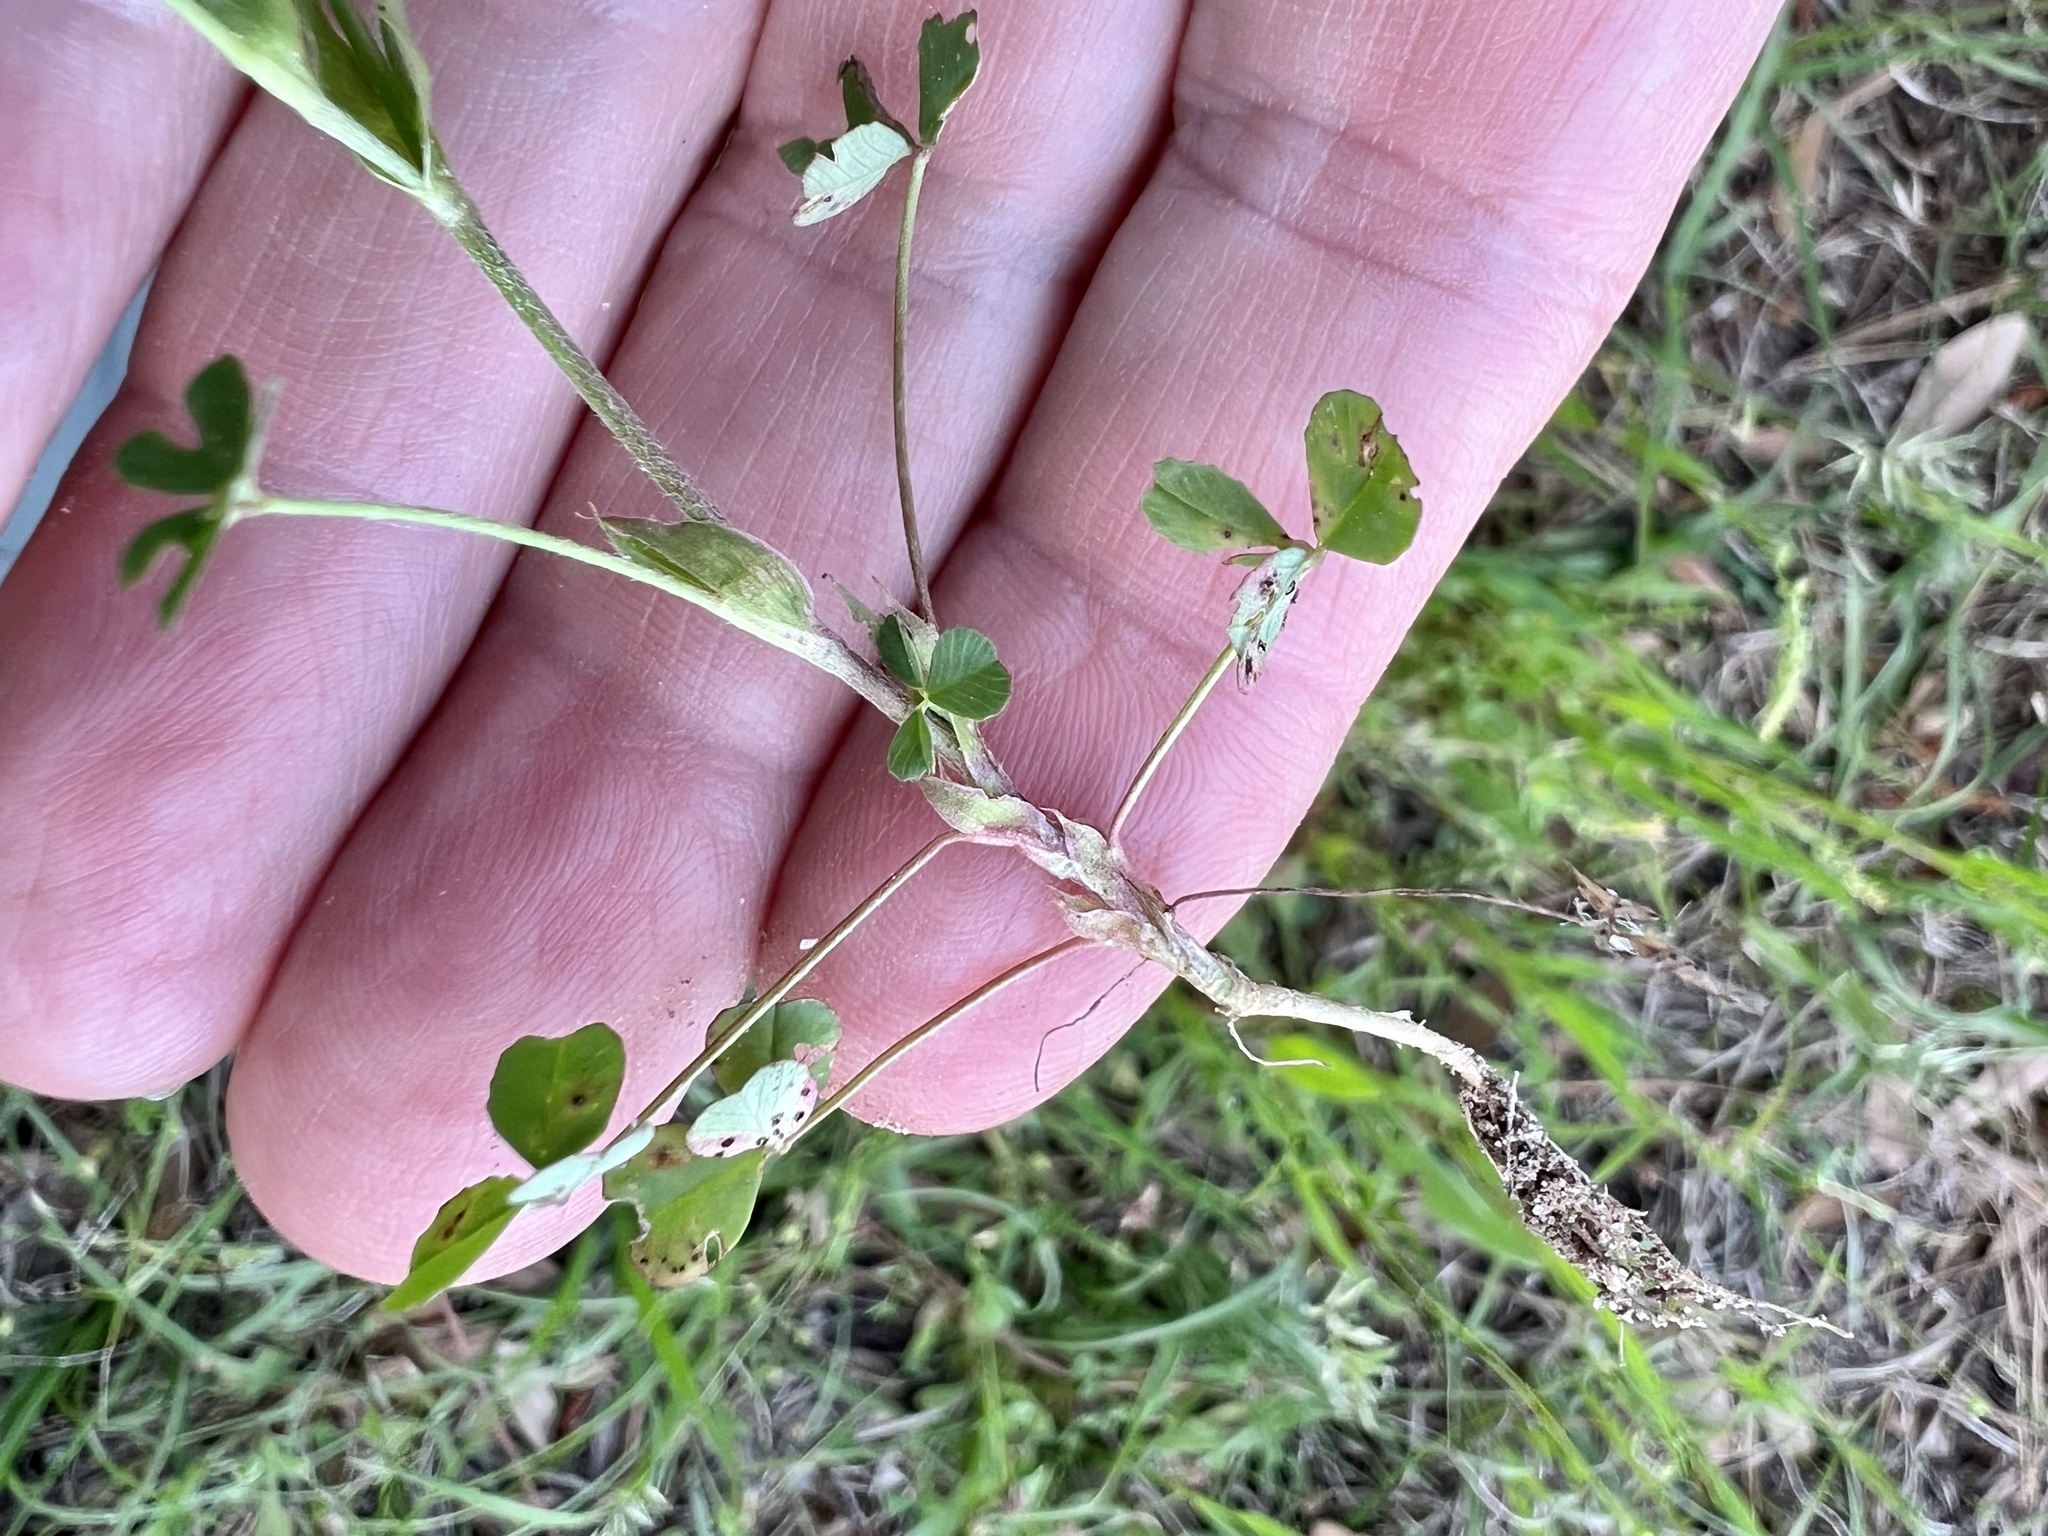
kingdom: Plantae
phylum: Tracheophyta
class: Magnoliopsida
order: Fabales
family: Fabaceae
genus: Trifolium
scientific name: Trifolium carolinianum
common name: Wild white clover
